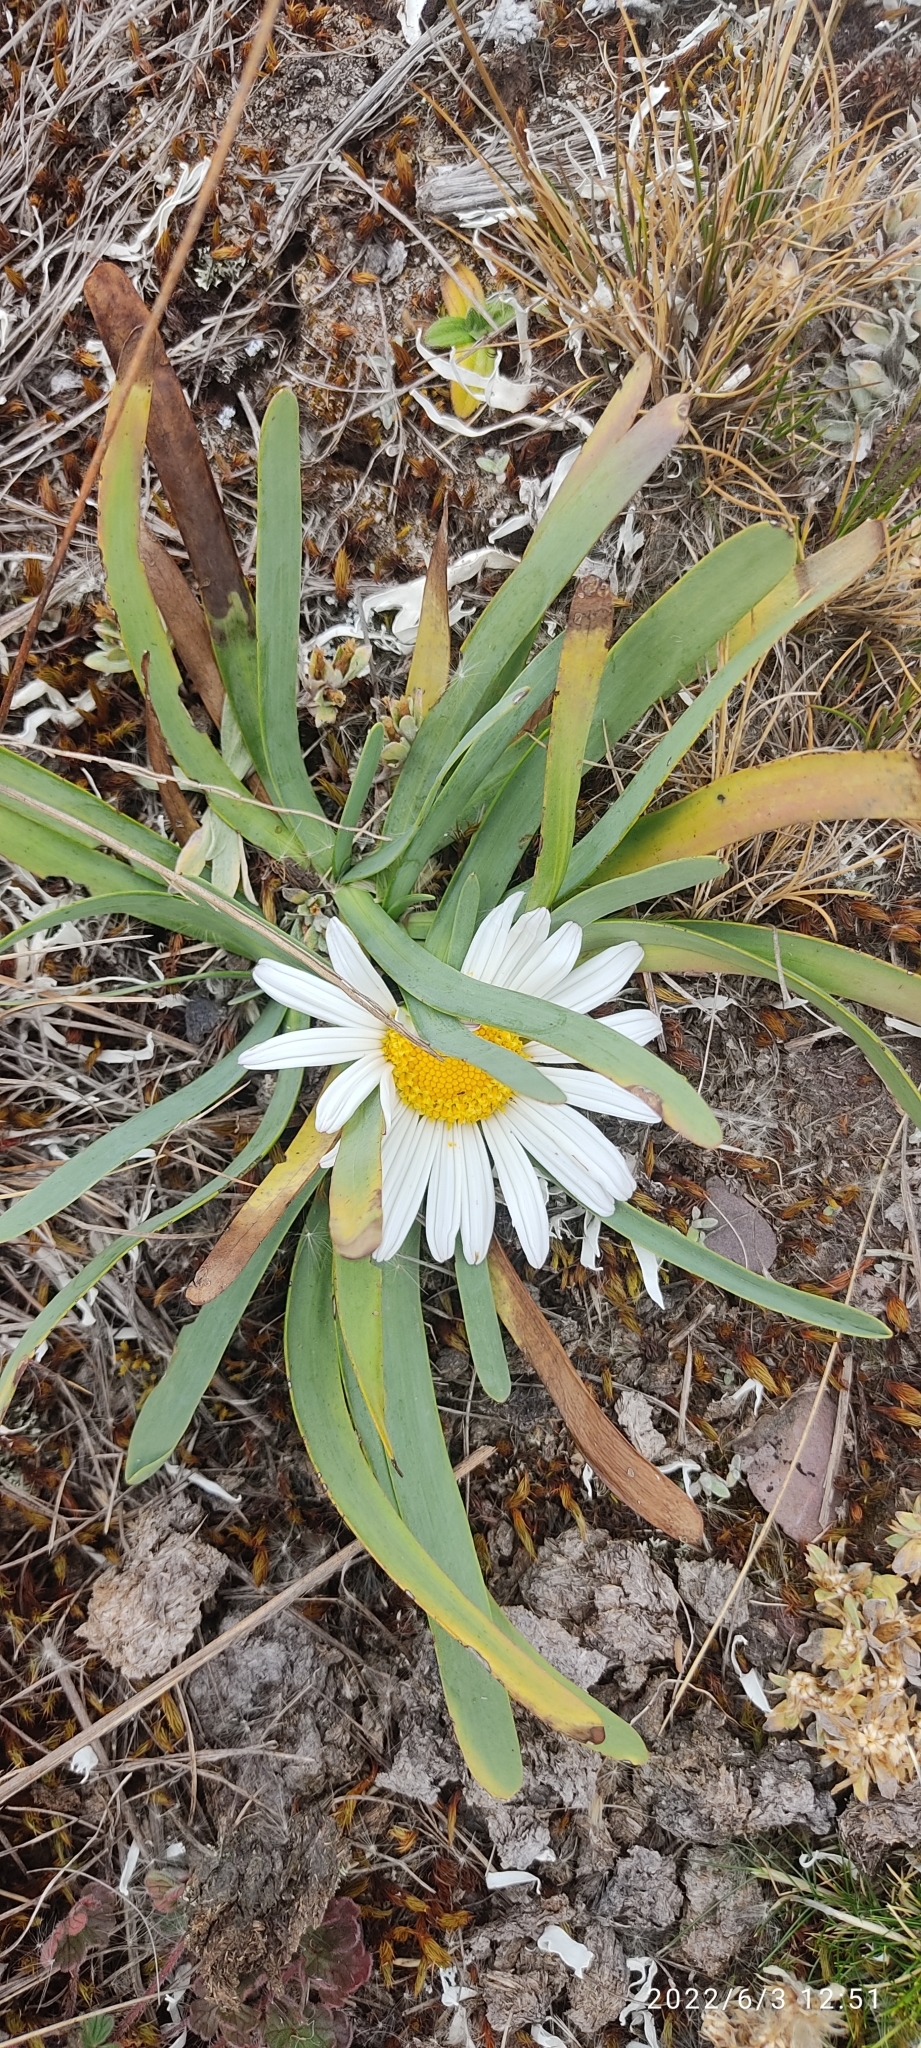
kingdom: Plantae
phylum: Tracheophyta
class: Magnoliopsida
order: Asterales
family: Asteraceae
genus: Rockhausenia
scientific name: Rockhausenia nubigena
